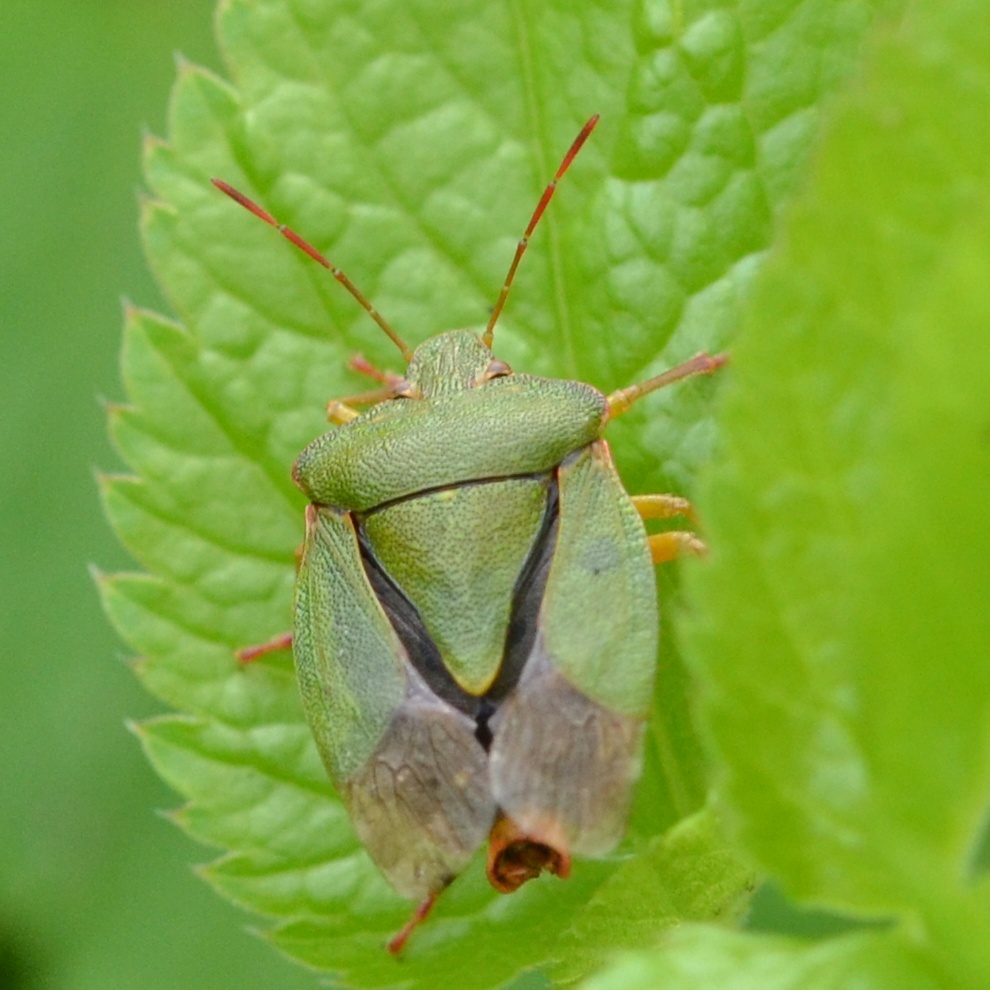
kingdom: Animalia
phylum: Arthropoda
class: Insecta
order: Hemiptera
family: Pentatomidae
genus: Palomena
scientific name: Palomena prasina
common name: Green shieldbug
